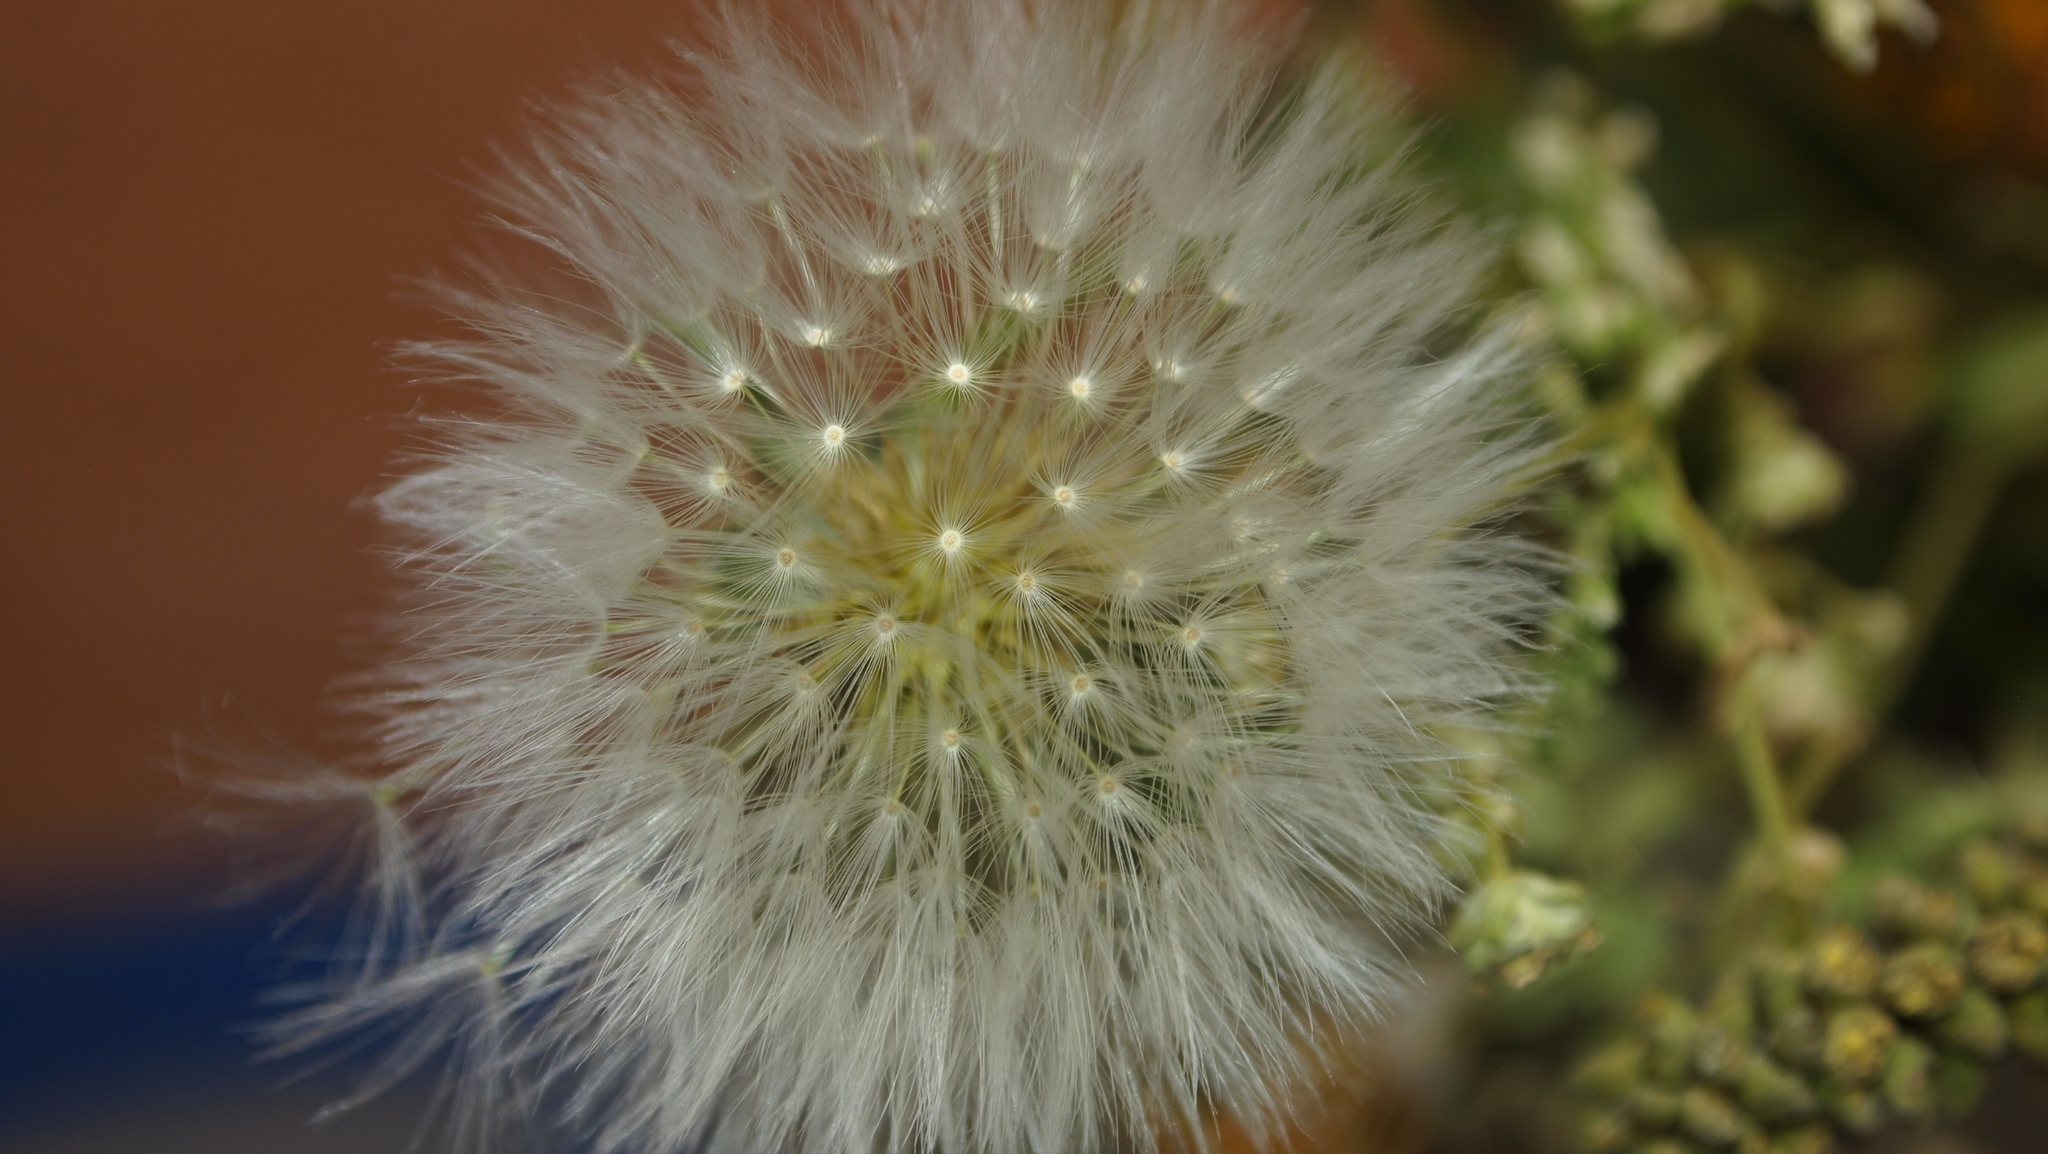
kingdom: Plantae
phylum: Tracheophyta
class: Magnoliopsida
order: Asterales
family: Asteraceae
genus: Taraxacum
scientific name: Taraxacum officinale
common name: Common dandelion
